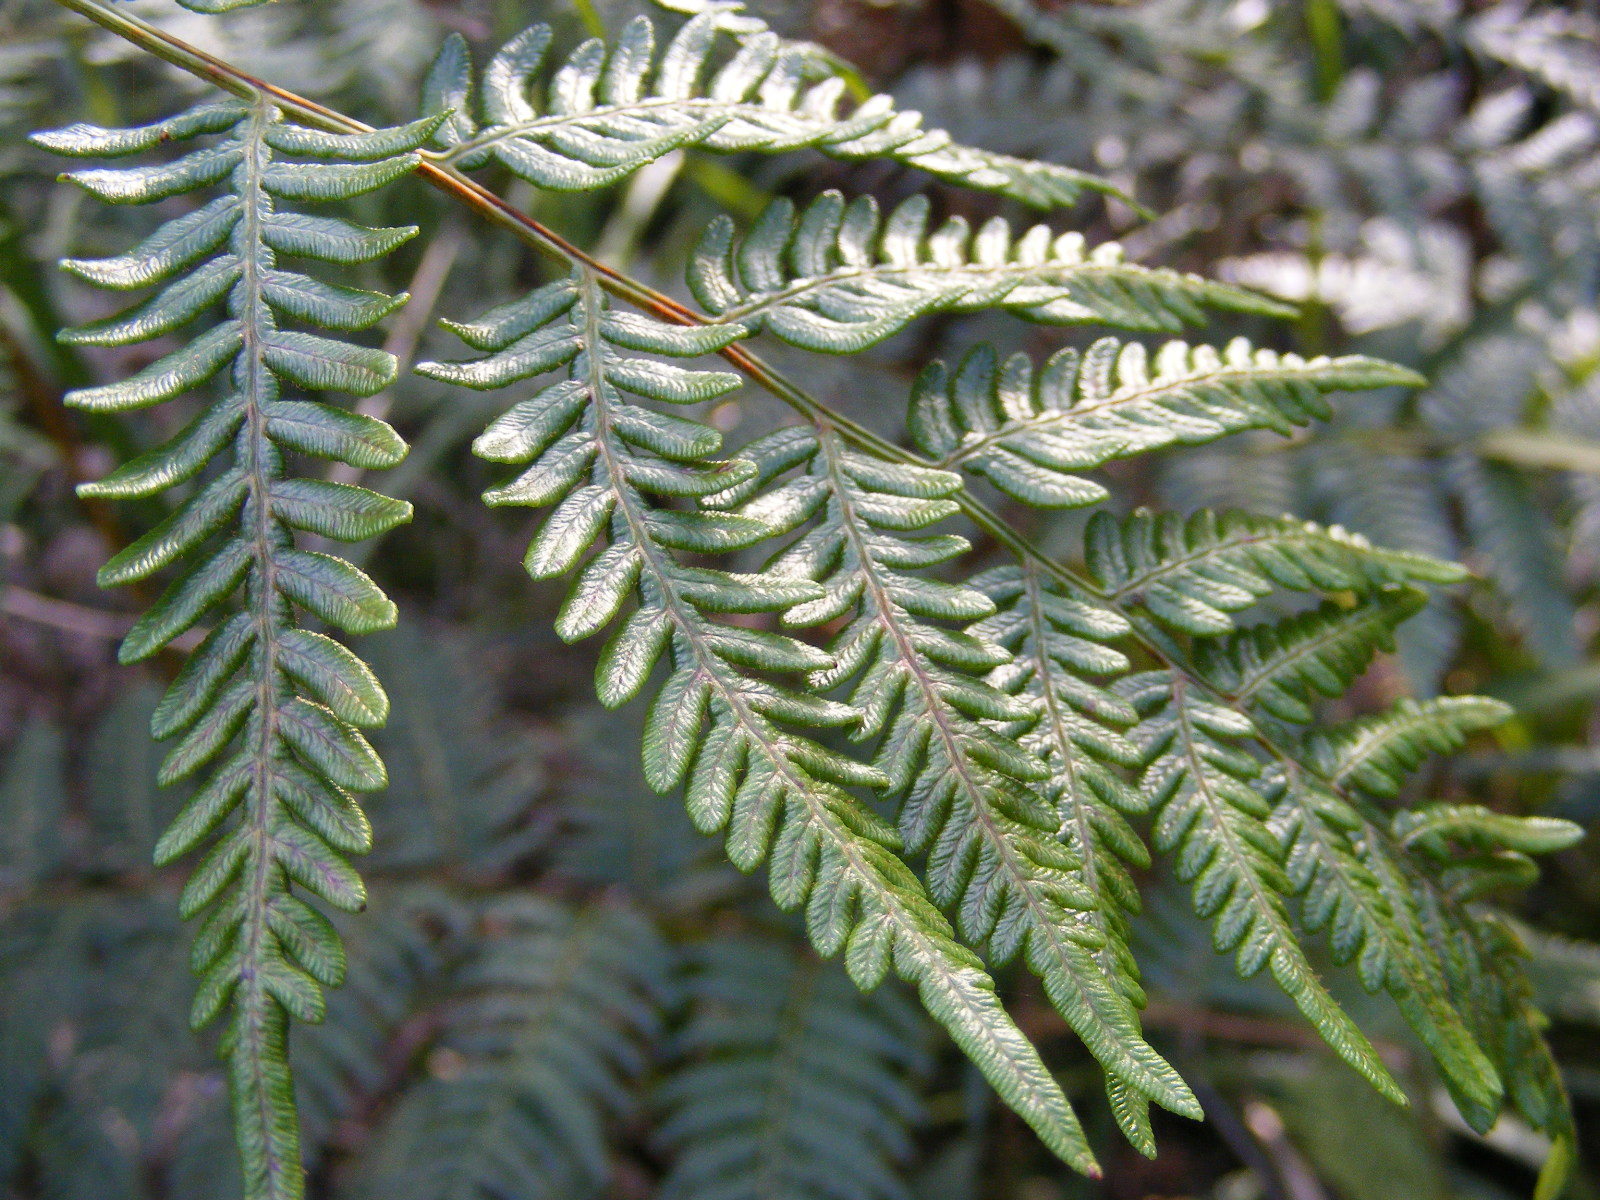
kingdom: Plantae
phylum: Tracheophyta
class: Polypodiopsida
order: Polypodiales
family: Dennstaedtiaceae
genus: Pteridium
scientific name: Pteridium esculentum
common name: Bracken fern
